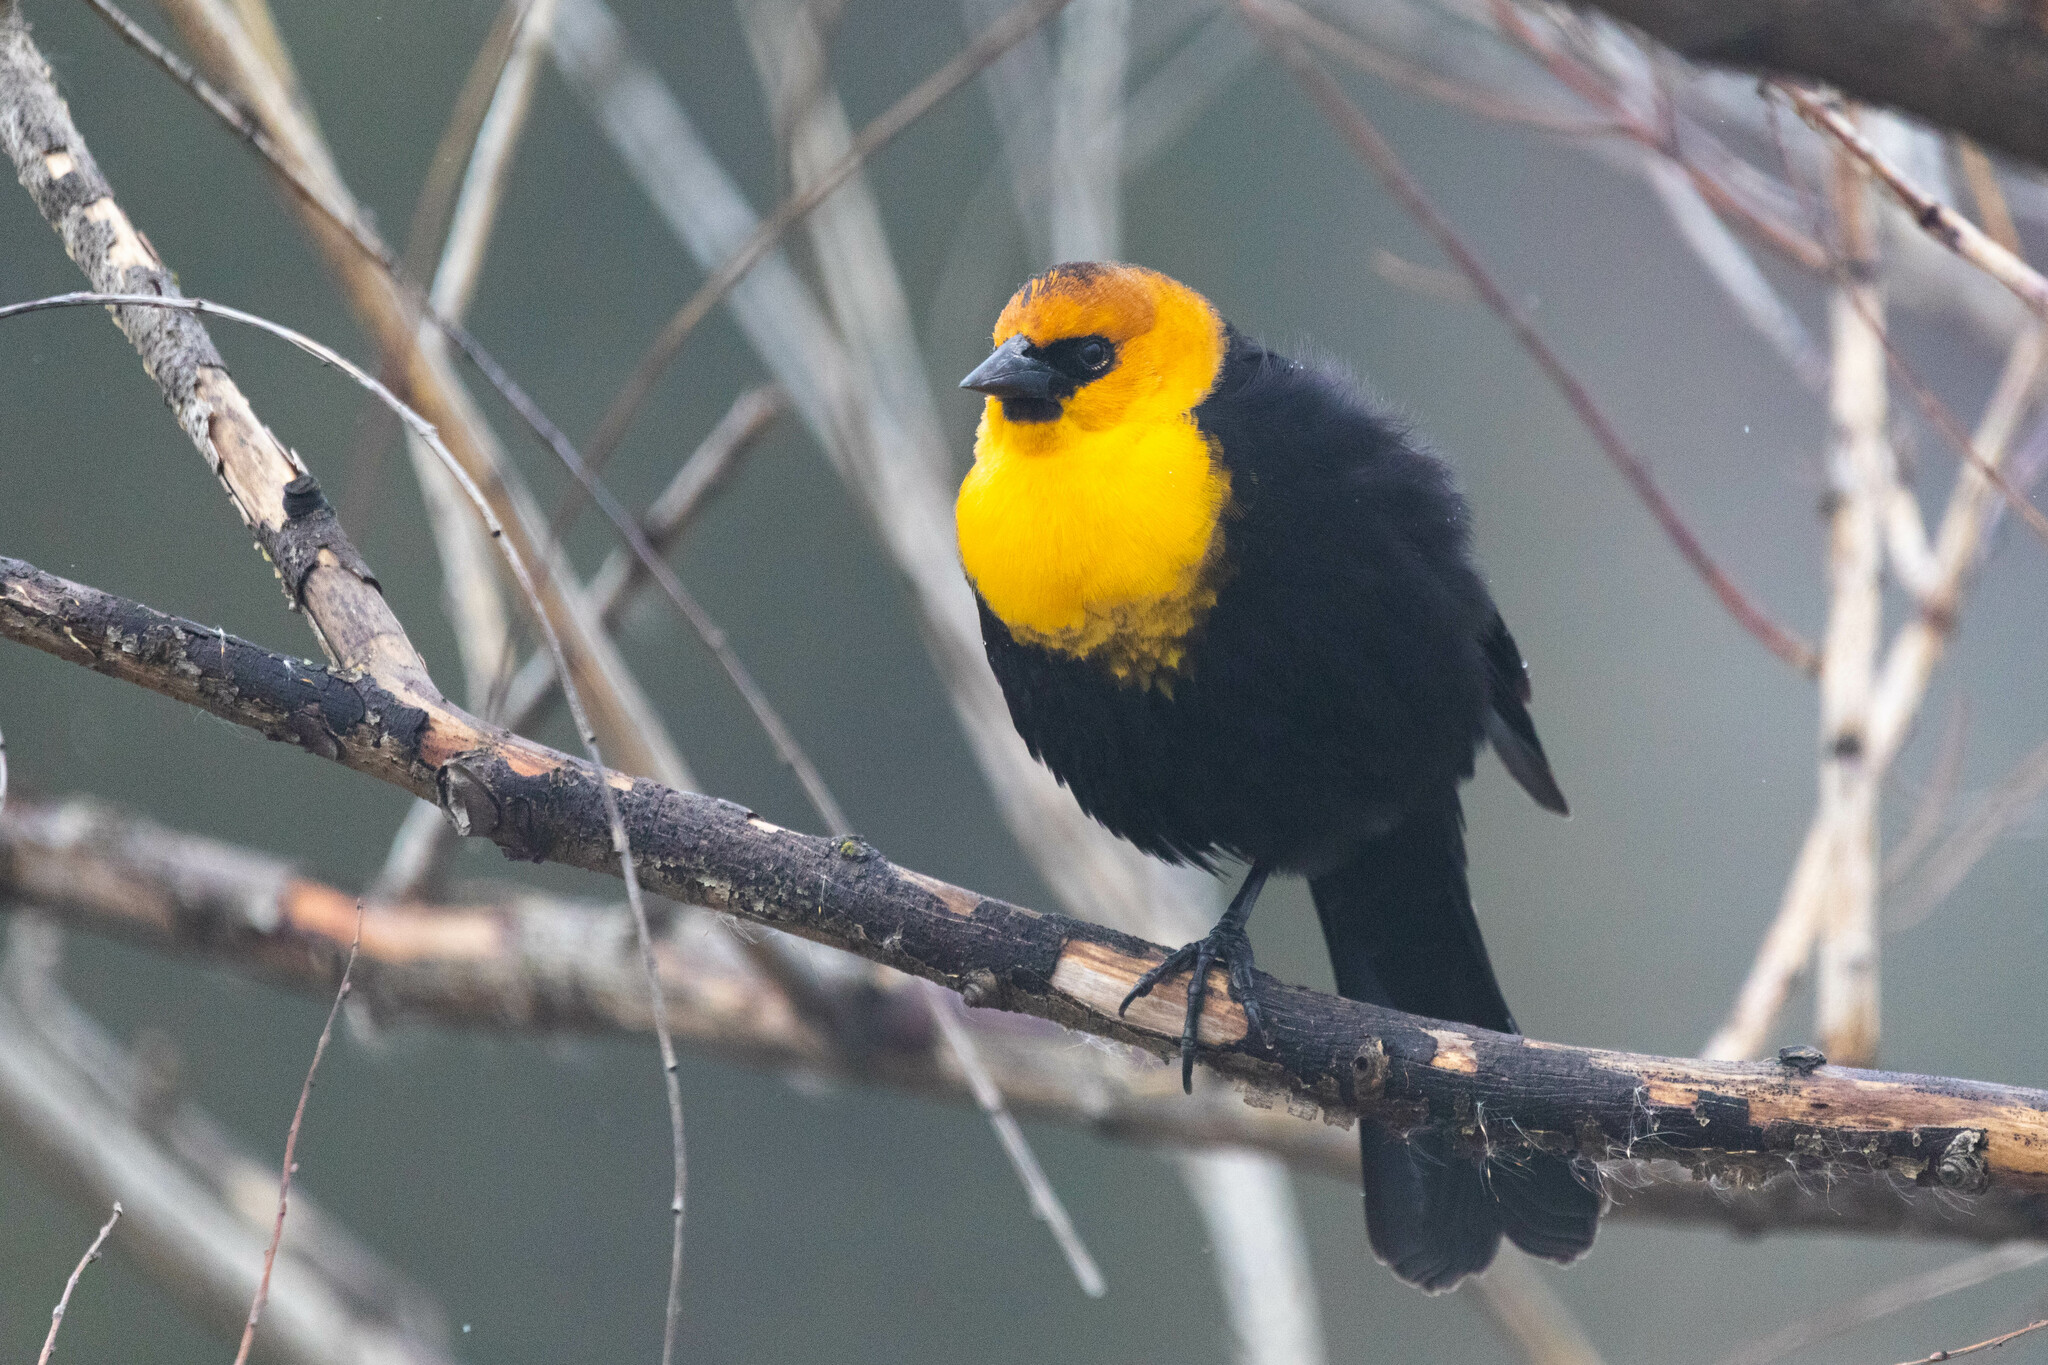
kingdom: Animalia
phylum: Chordata
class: Aves
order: Passeriformes
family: Icteridae
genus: Xanthocephalus
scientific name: Xanthocephalus xanthocephalus
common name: Yellow-headed blackbird
